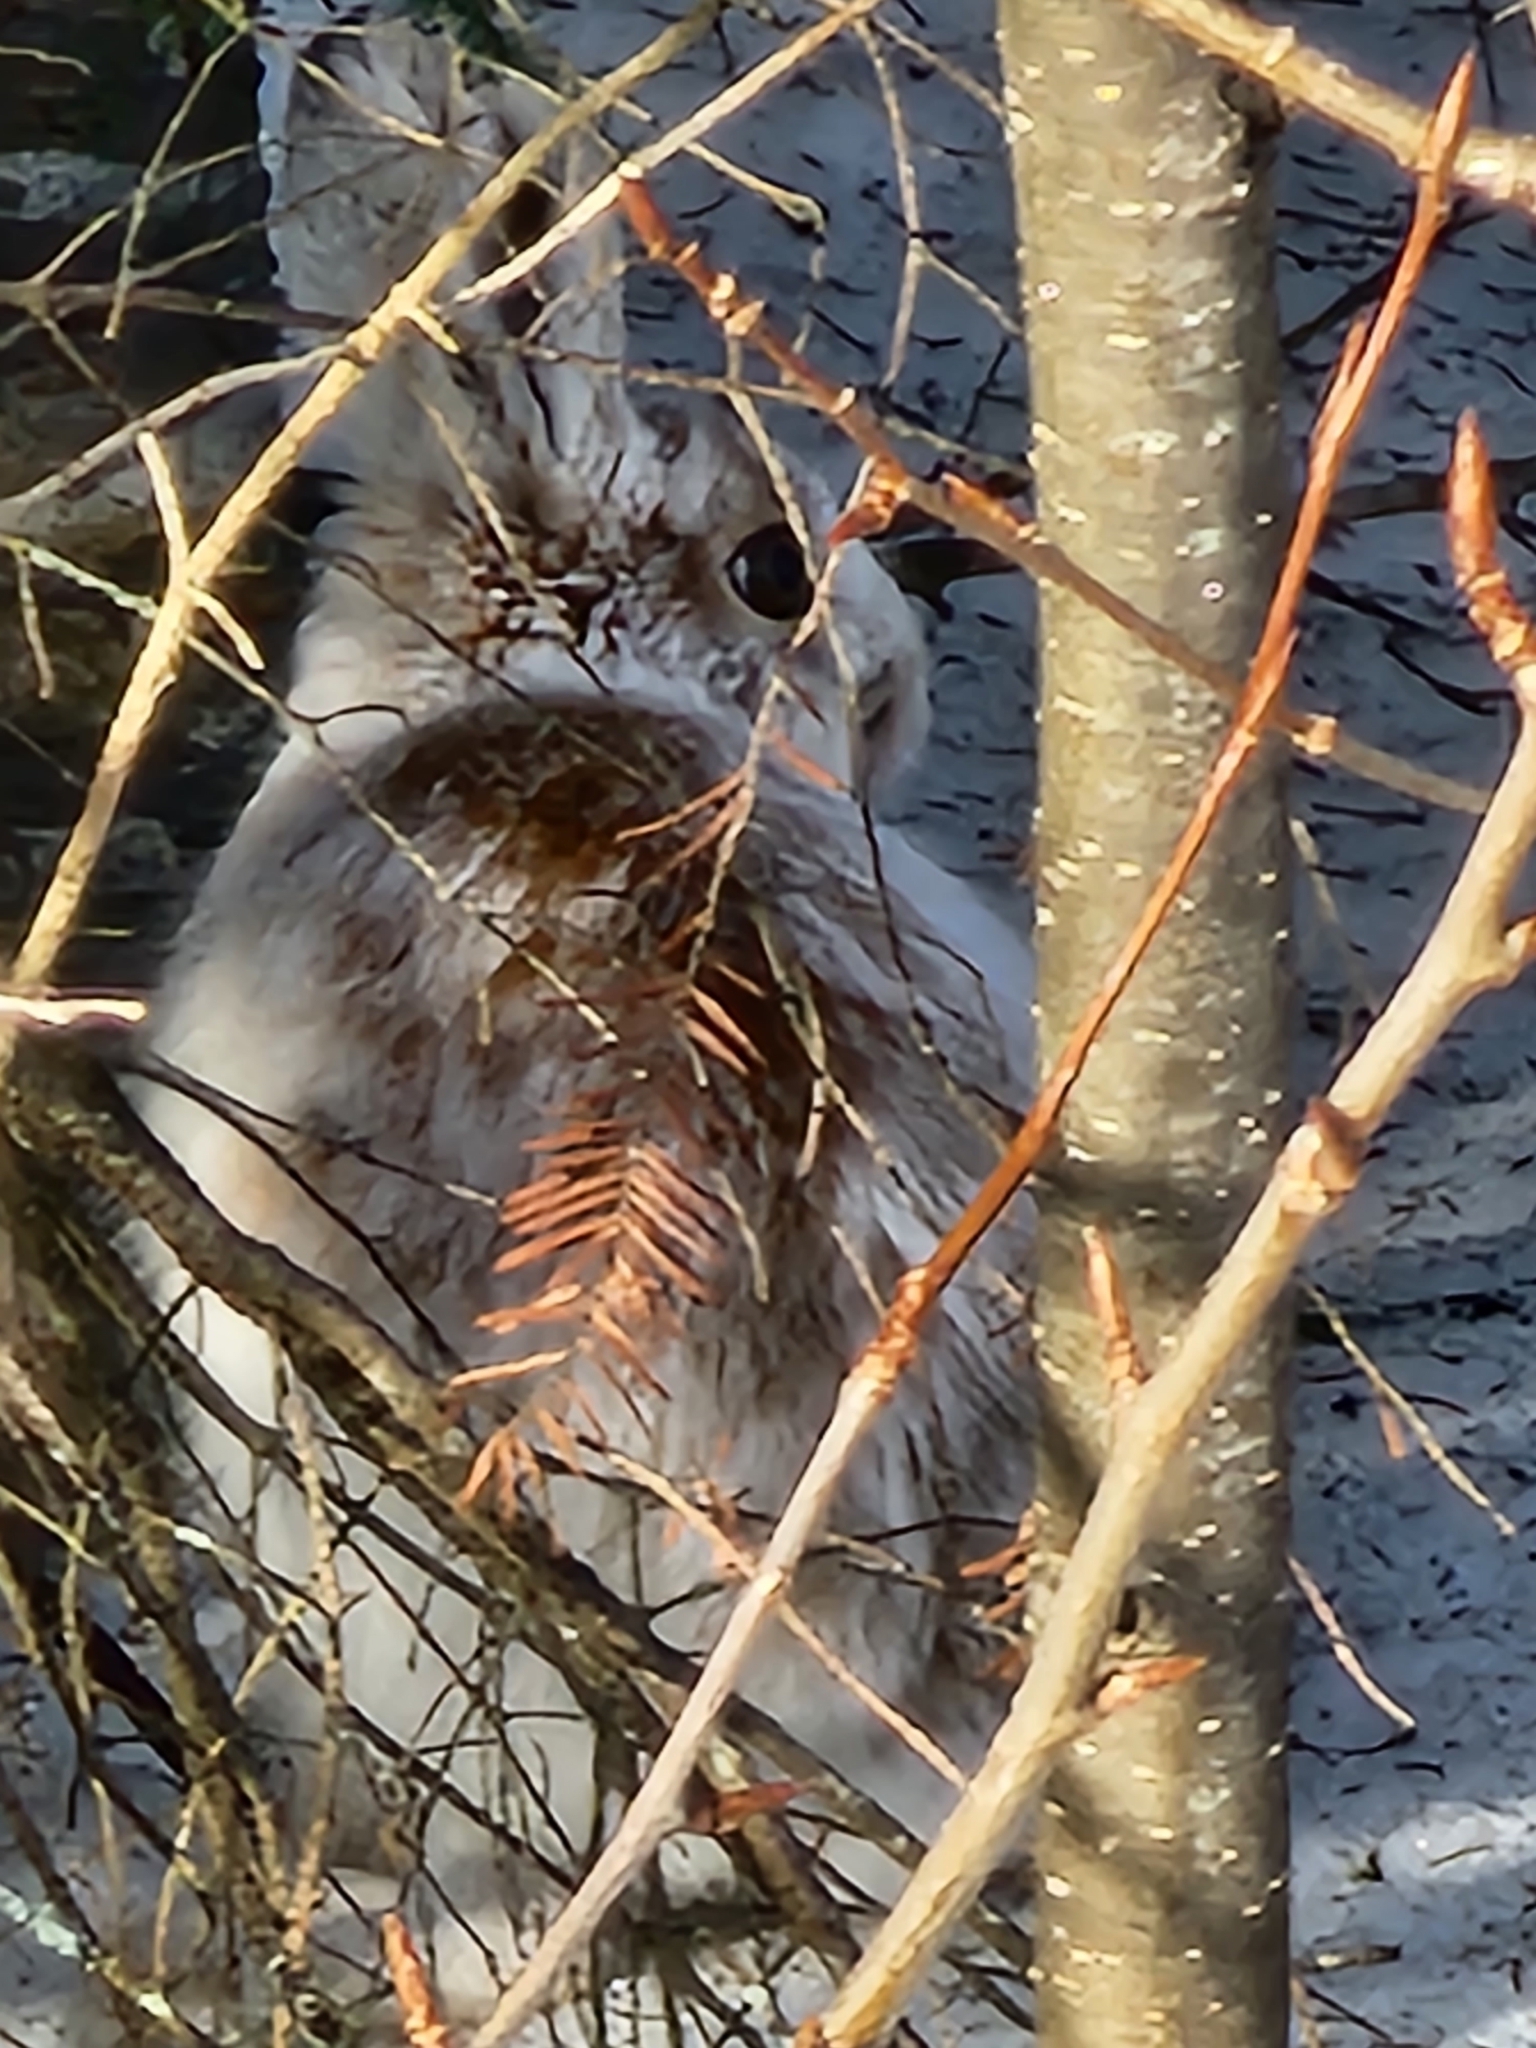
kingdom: Animalia
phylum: Chordata
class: Mammalia
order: Lagomorpha
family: Leporidae
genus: Lepus
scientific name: Lepus americanus
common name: Snowshoe hare
